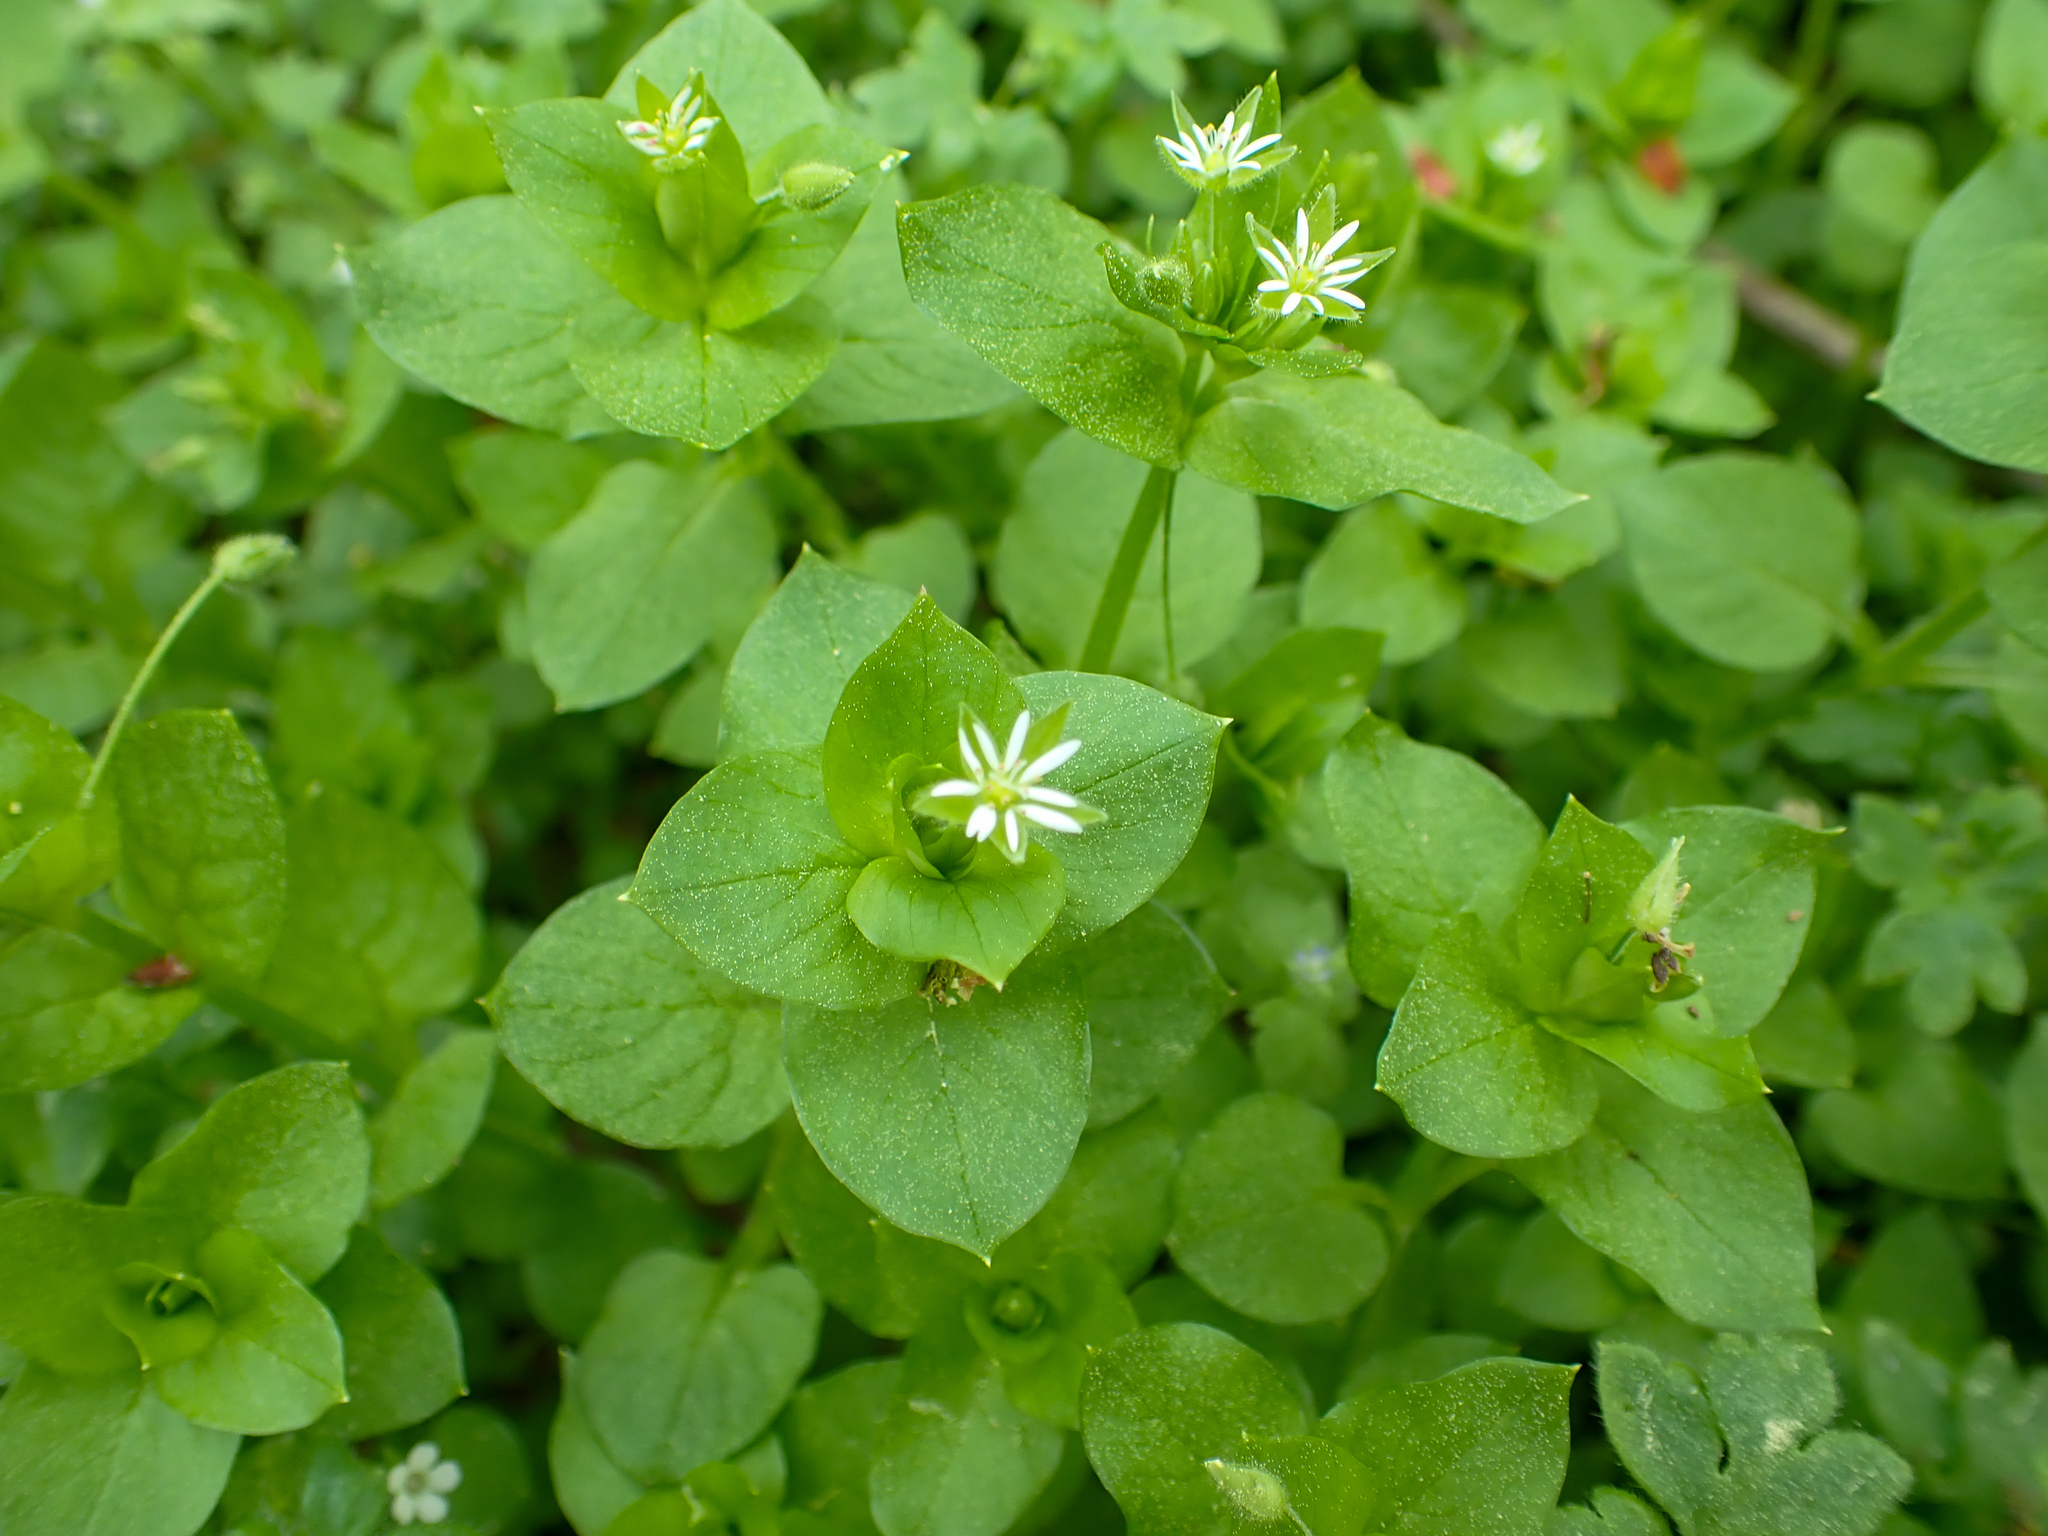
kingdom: Plantae
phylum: Tracheophyta
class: Magnoliopsida
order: Caryophyllales
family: Caryophyllaceae
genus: Stellaria
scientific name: Stellaria media
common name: Common chickweed
